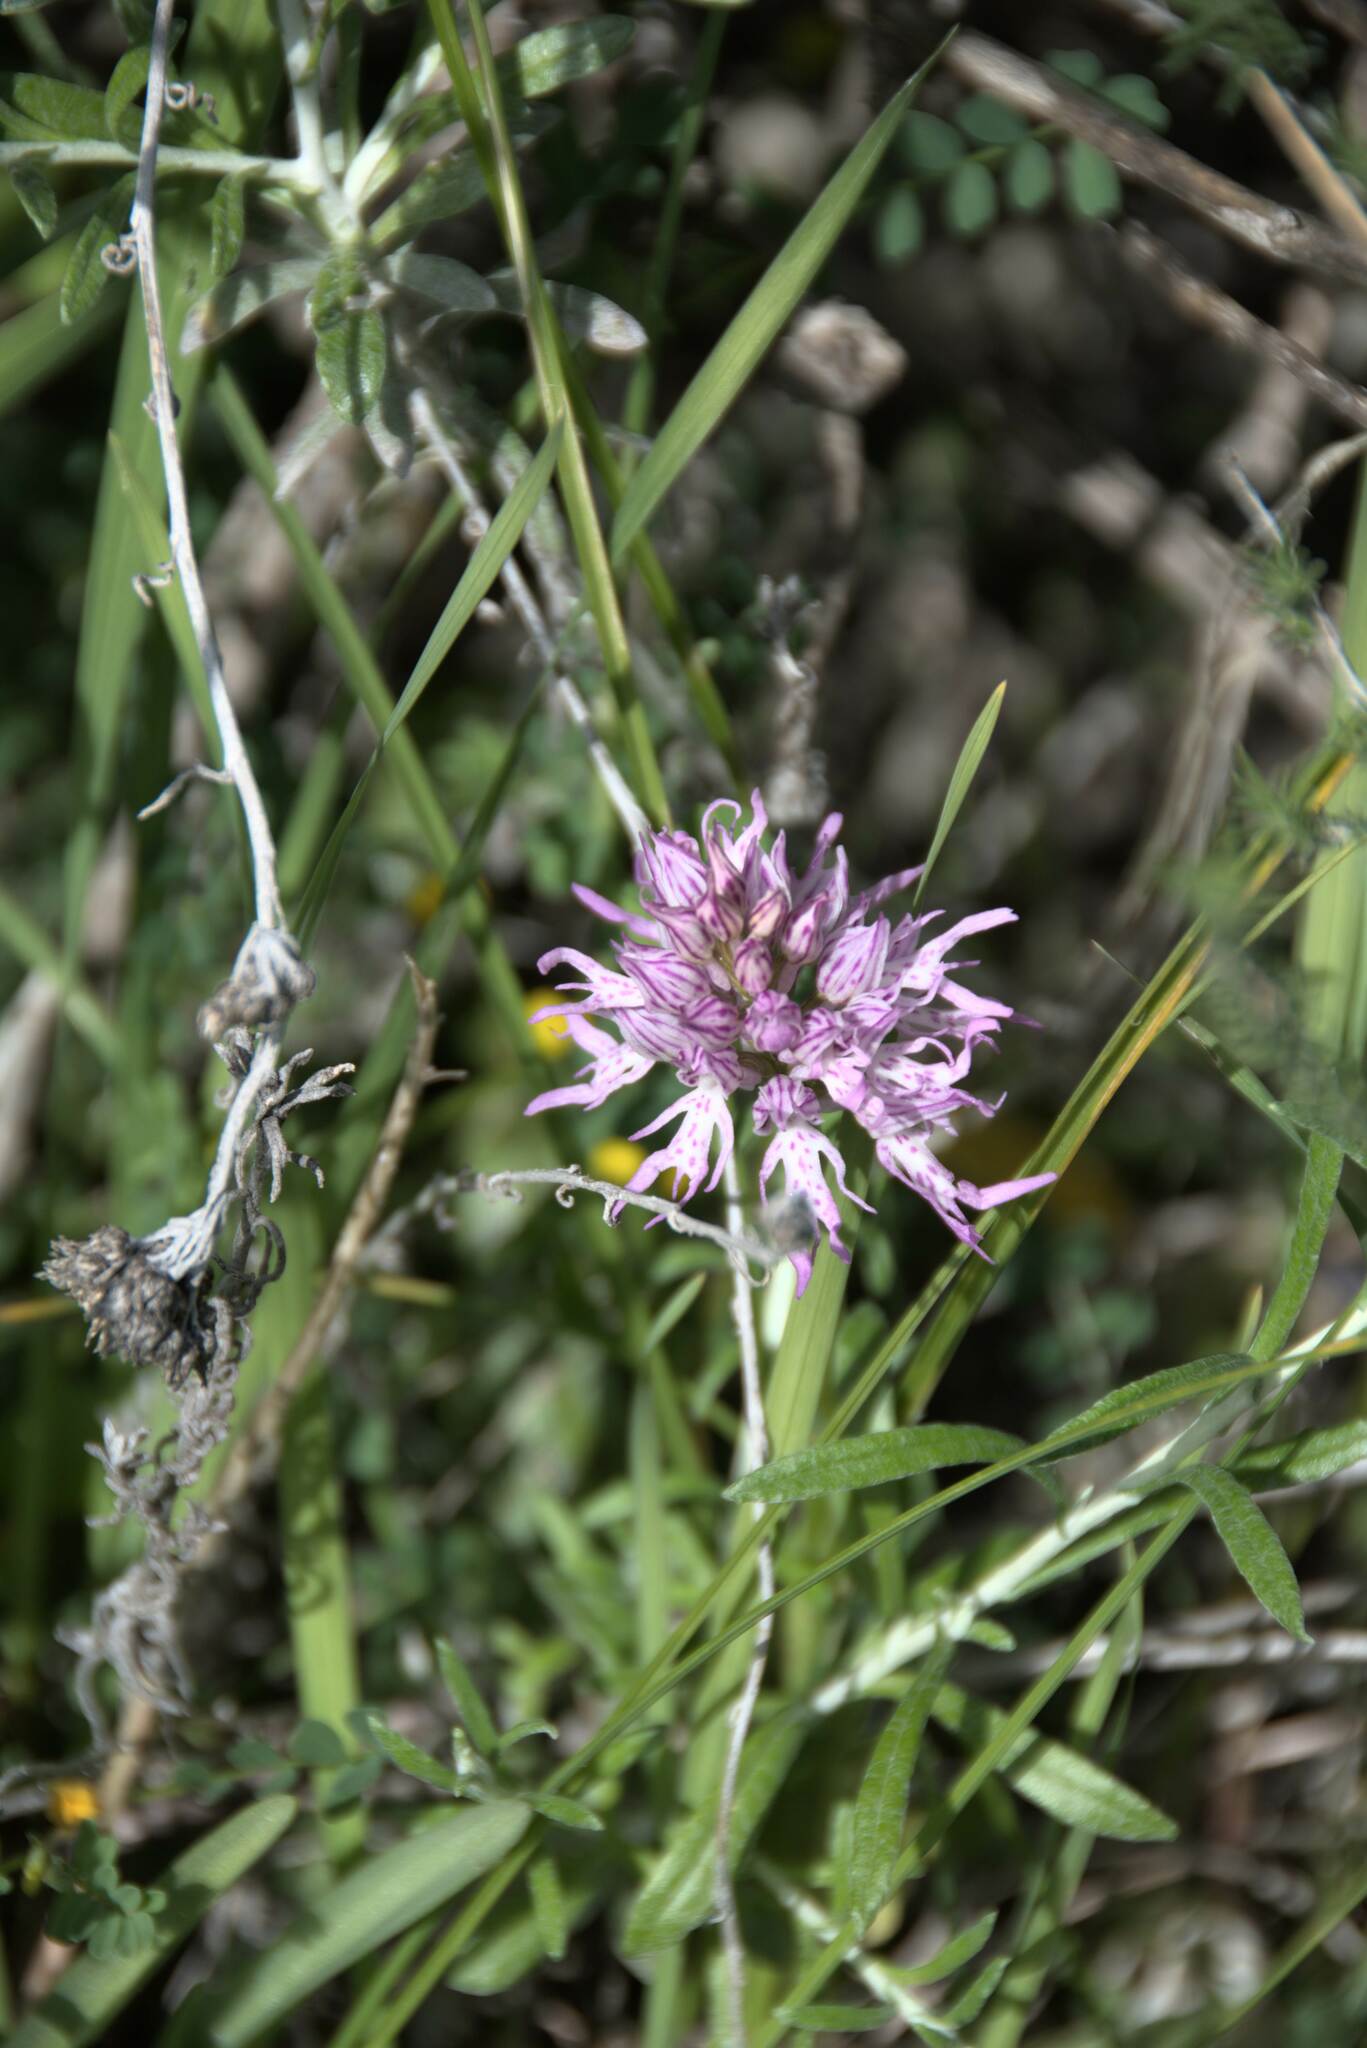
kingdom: Plantae
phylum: Tracheophyta
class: Liliopsida
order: Asparagales
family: Orchidaceae
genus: Orchis
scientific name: Orchis italica
